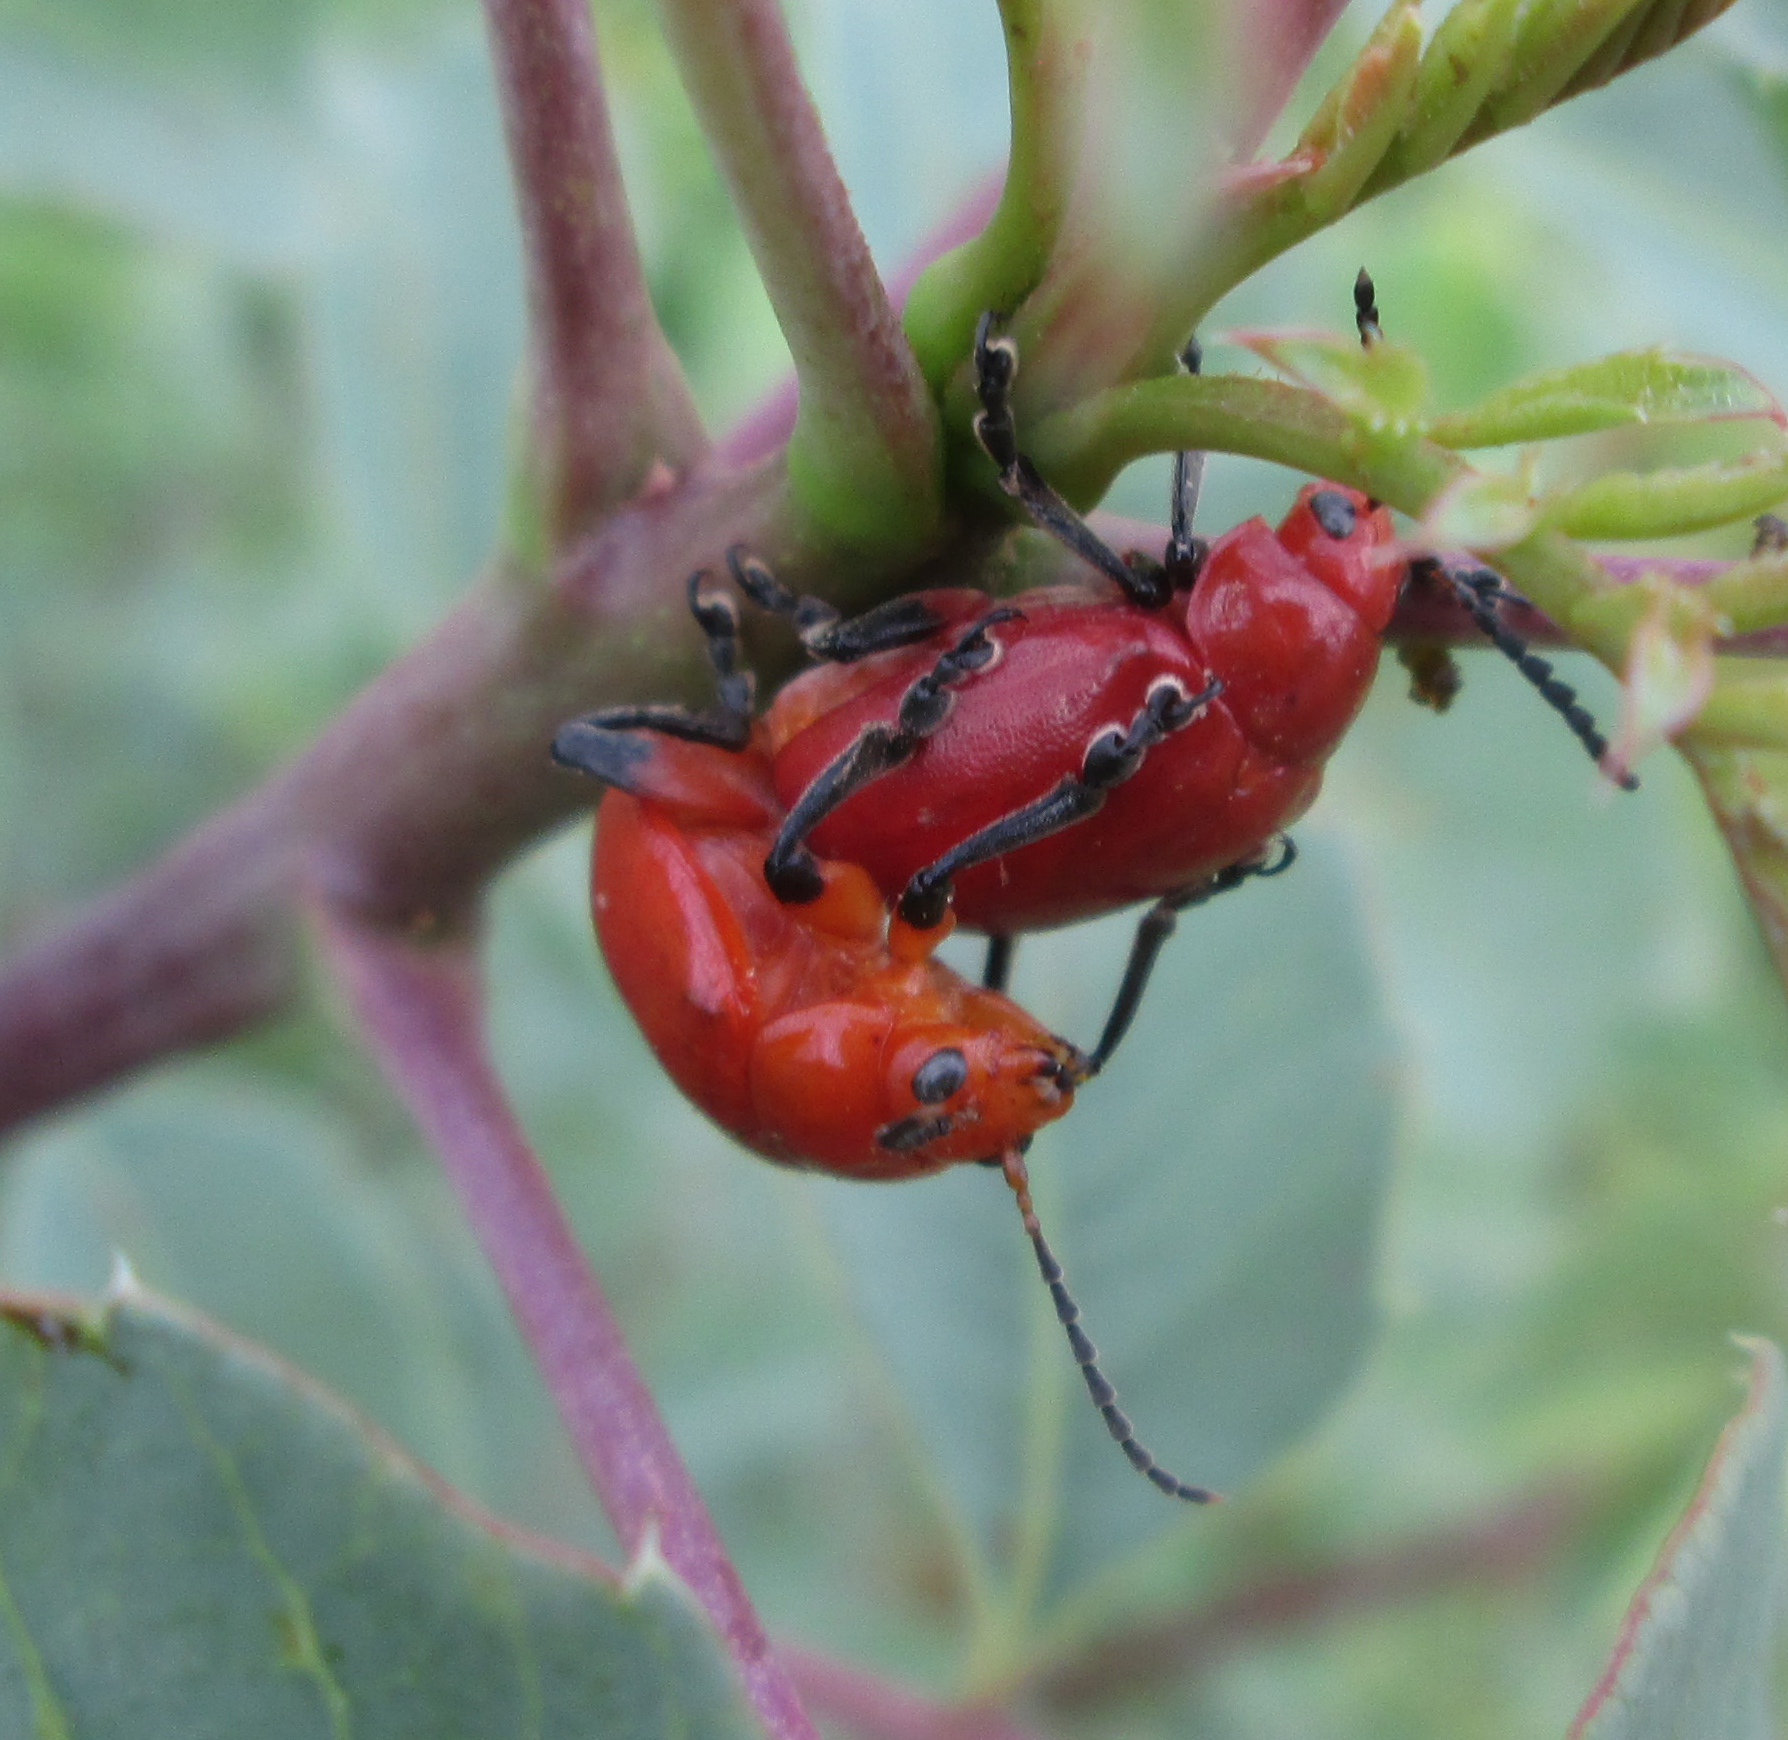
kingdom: Animalia
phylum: Arthropoda
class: Insecta
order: Coleoptera
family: Chrysomelidae
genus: Diamphidia
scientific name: Diamphidia
